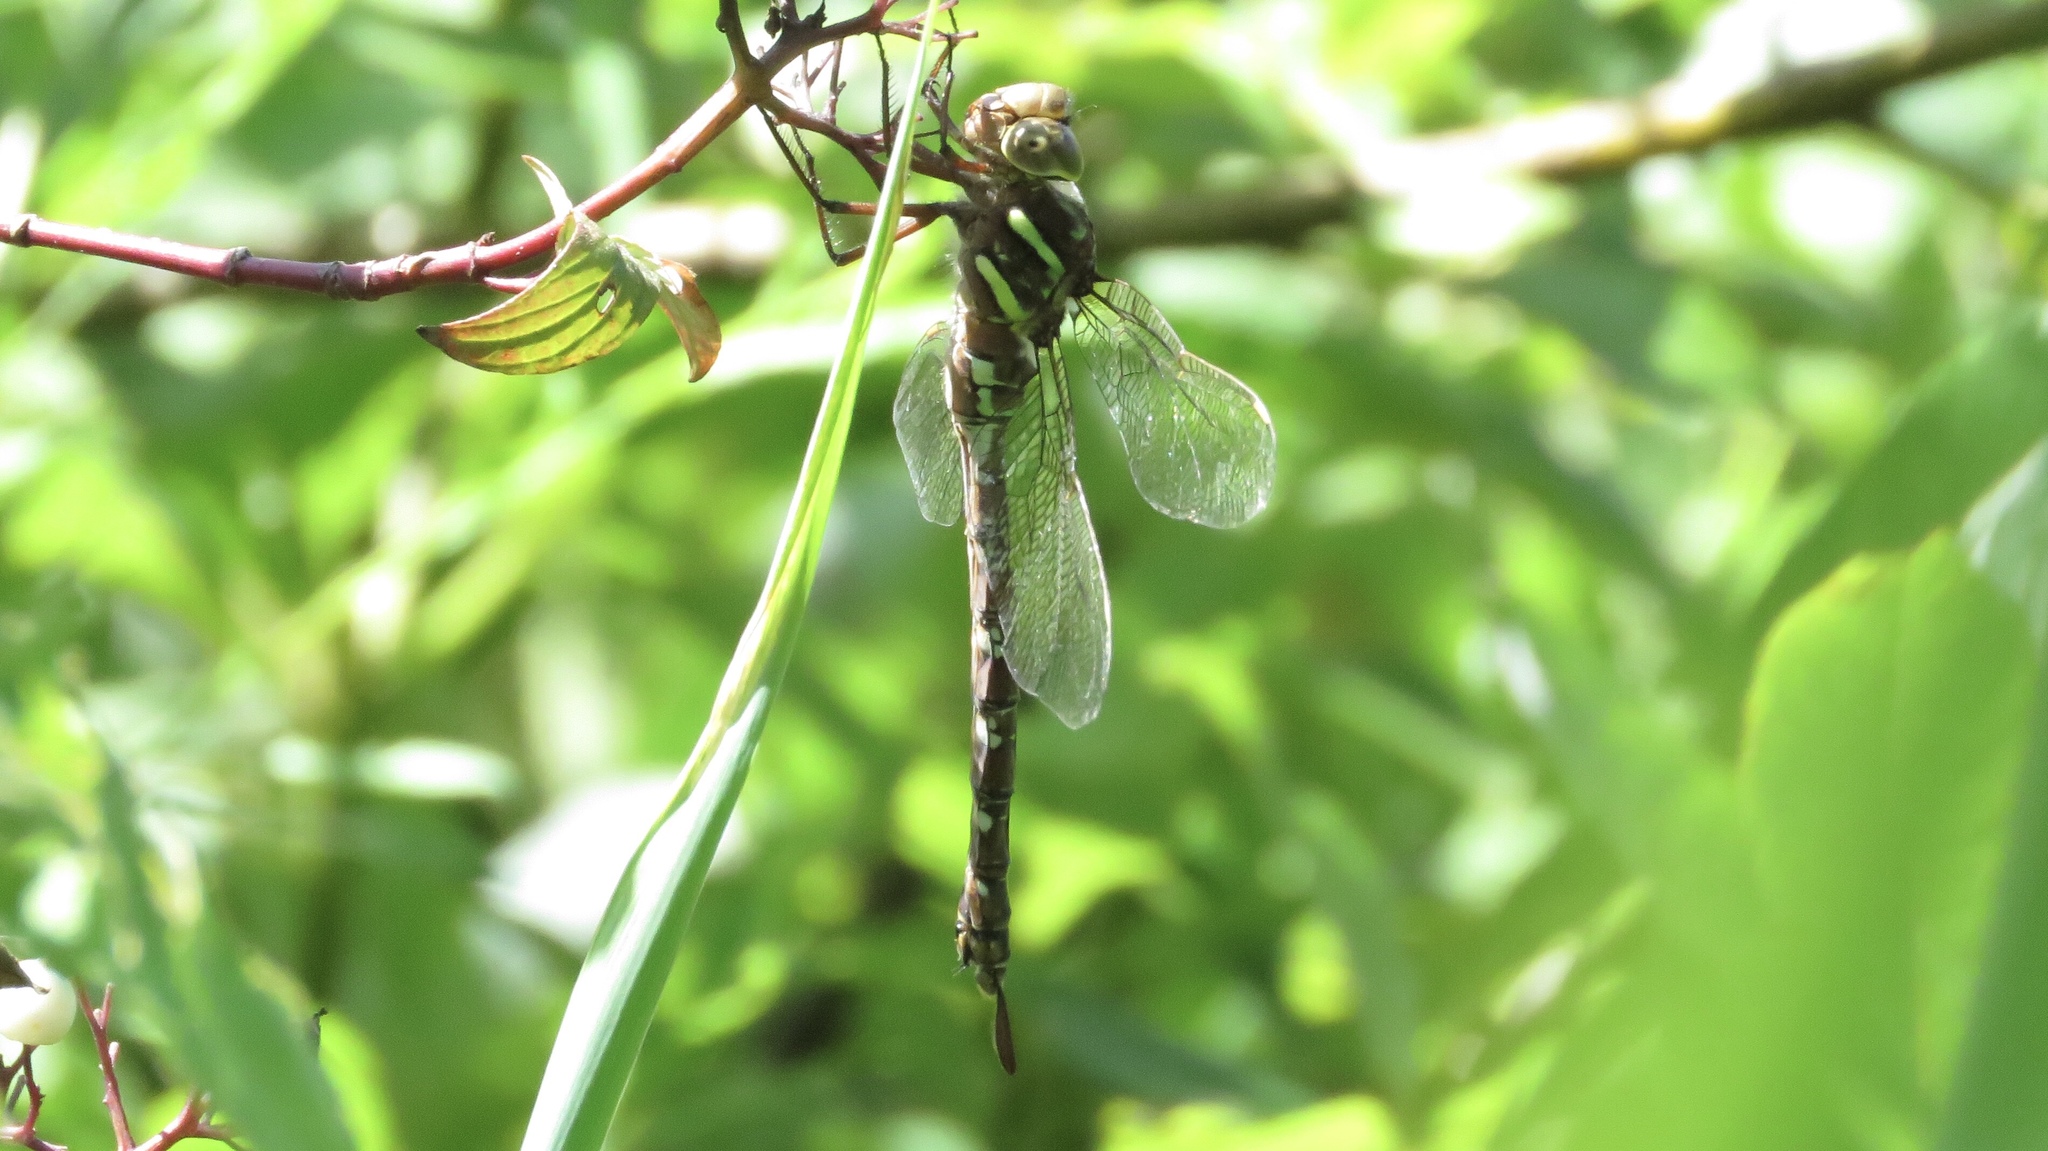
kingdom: Animalia
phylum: Arthropoda
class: Insecta
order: Odonata
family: Aeshnidae
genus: Aeshna
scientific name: Aeshna umbrosa
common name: Shadow darner
